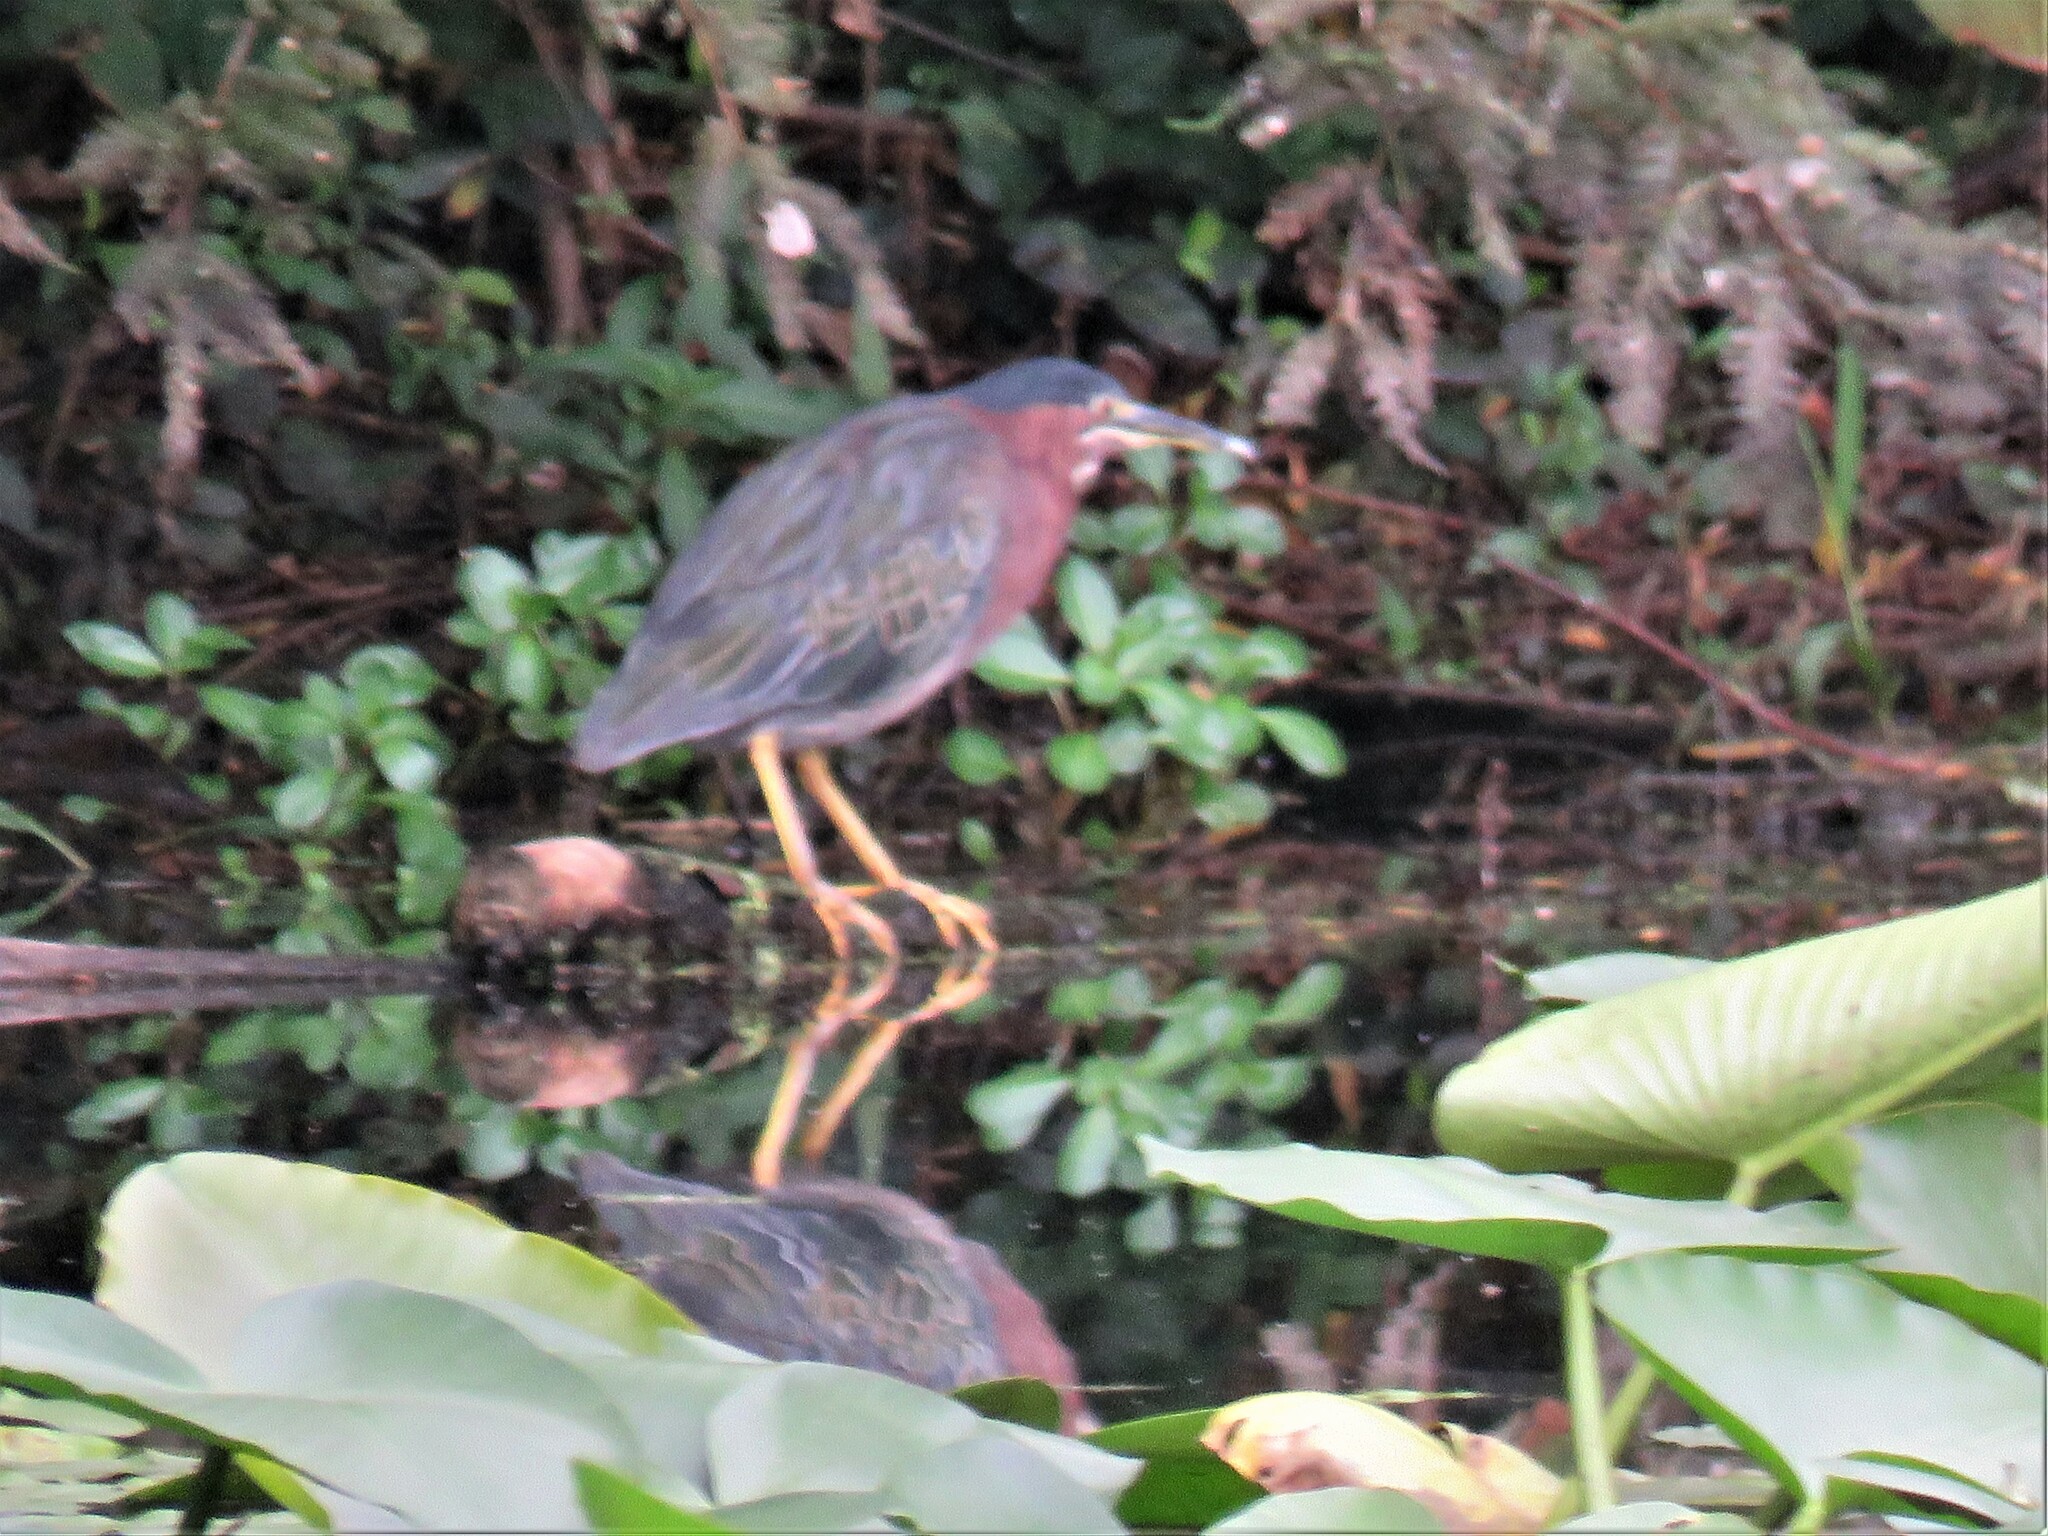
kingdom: Animalia
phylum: Chordata
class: Aves
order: Pelecaniformes
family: Ardeidae
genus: Butorides
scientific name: Butorides virescens
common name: Green heron
